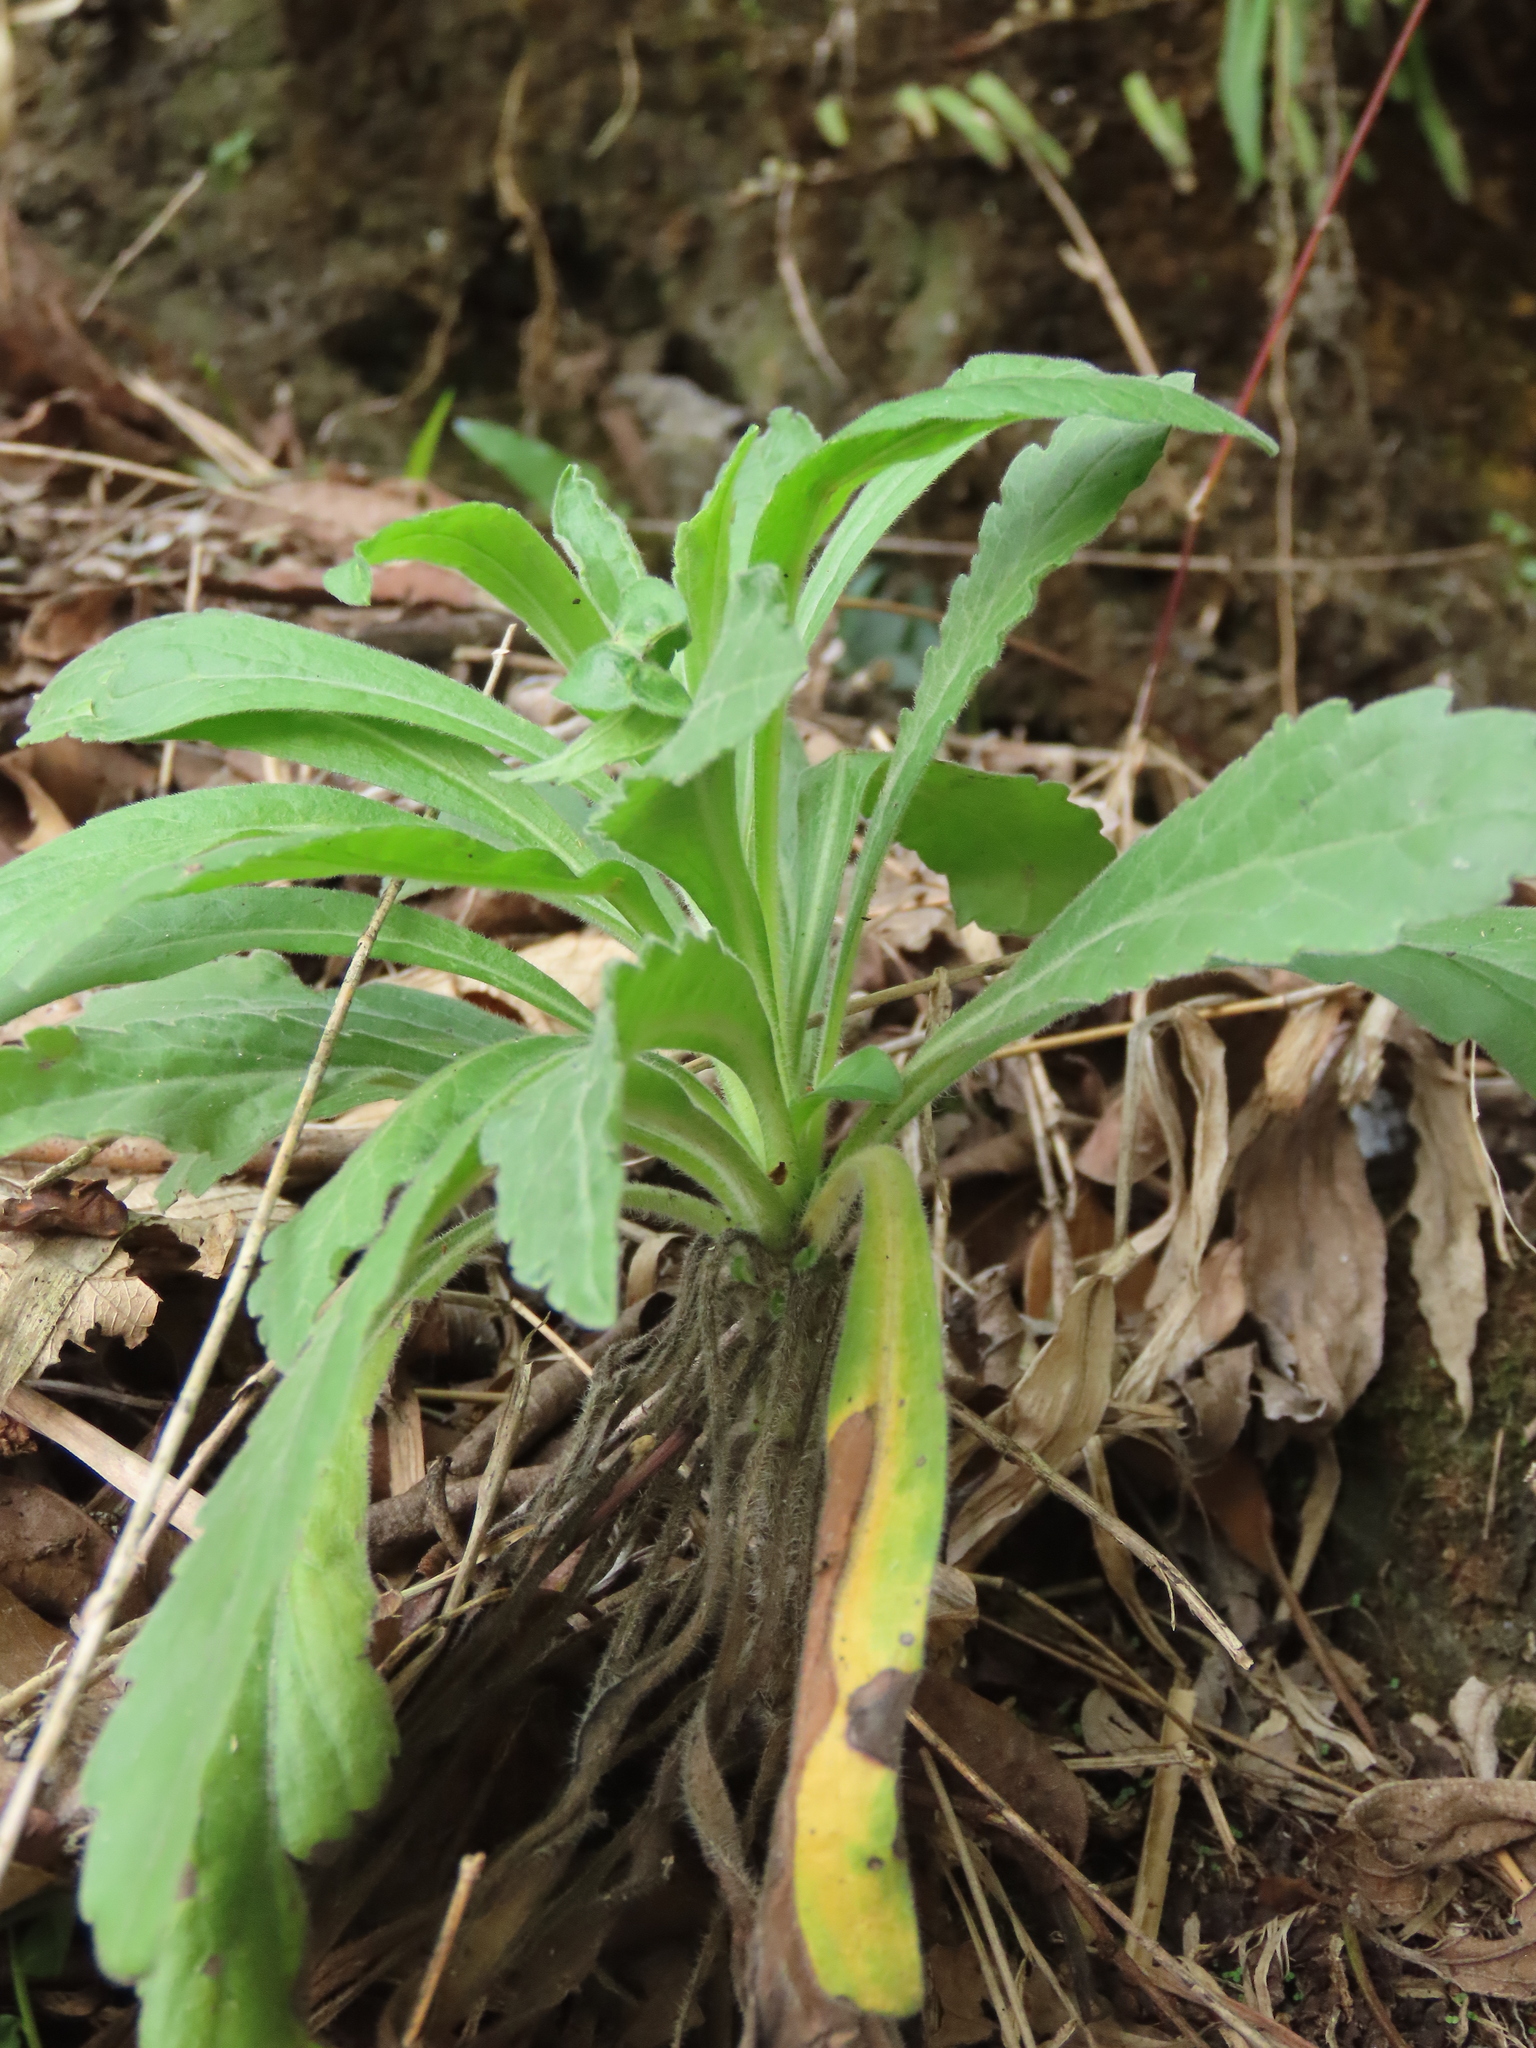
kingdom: Plantae
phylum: Tracheophyta
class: Magnoliopsida
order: Asterales
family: Asteraceae
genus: Erigeron
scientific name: Erigeron sumatrensis
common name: Daisy
